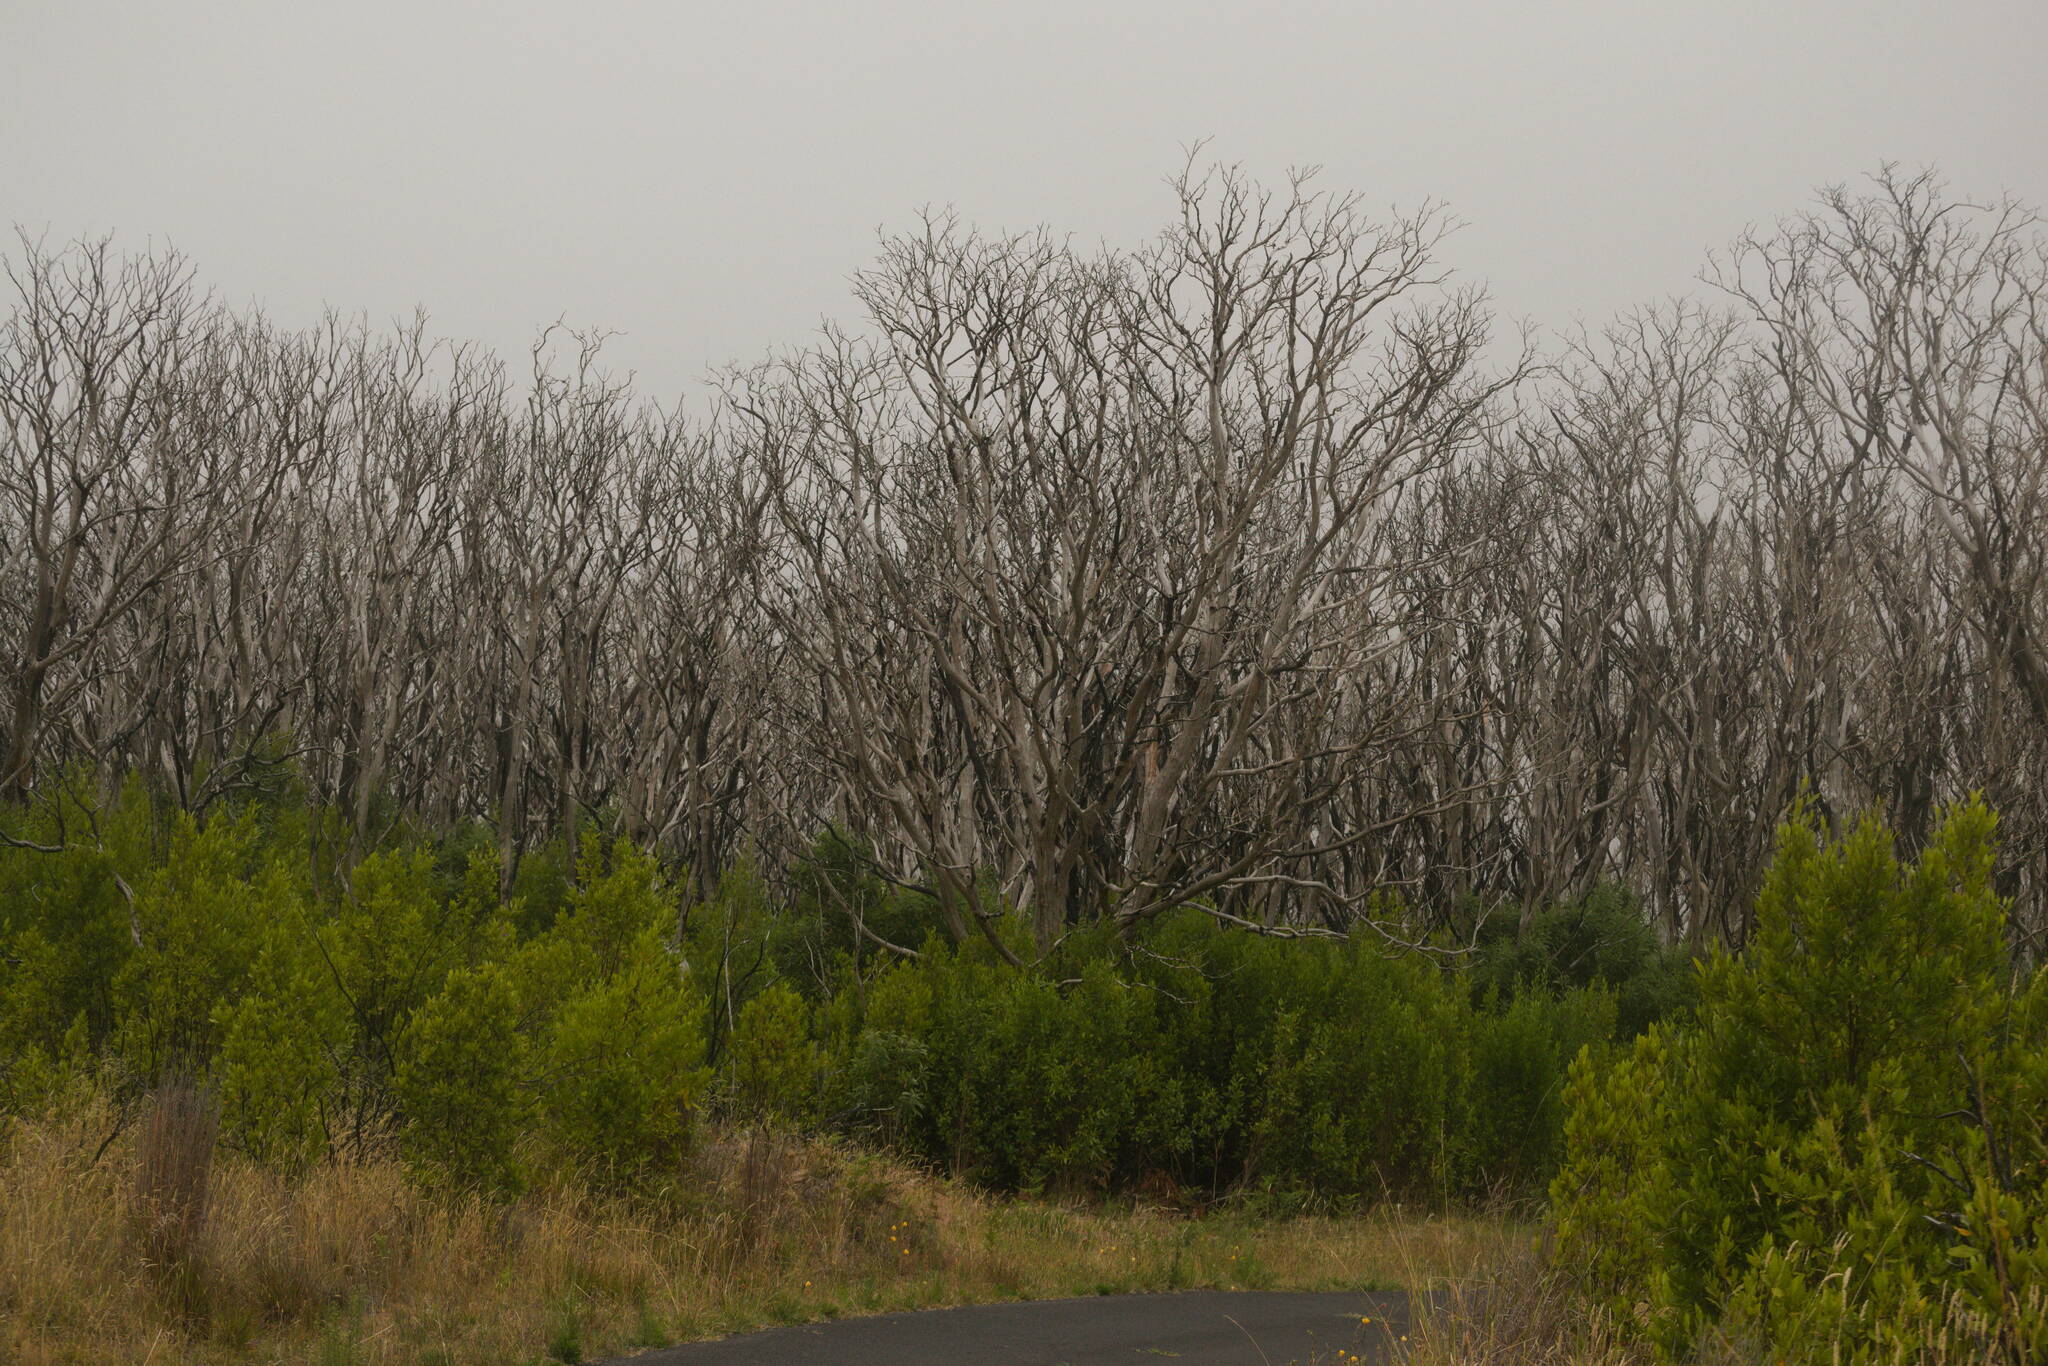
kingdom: Plantae
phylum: Tracheophyta
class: Magnoliopsida
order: Sapindales
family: Sapindaceae
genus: Dodonaea
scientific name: Dodonaea viscosa
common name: Hopbush
